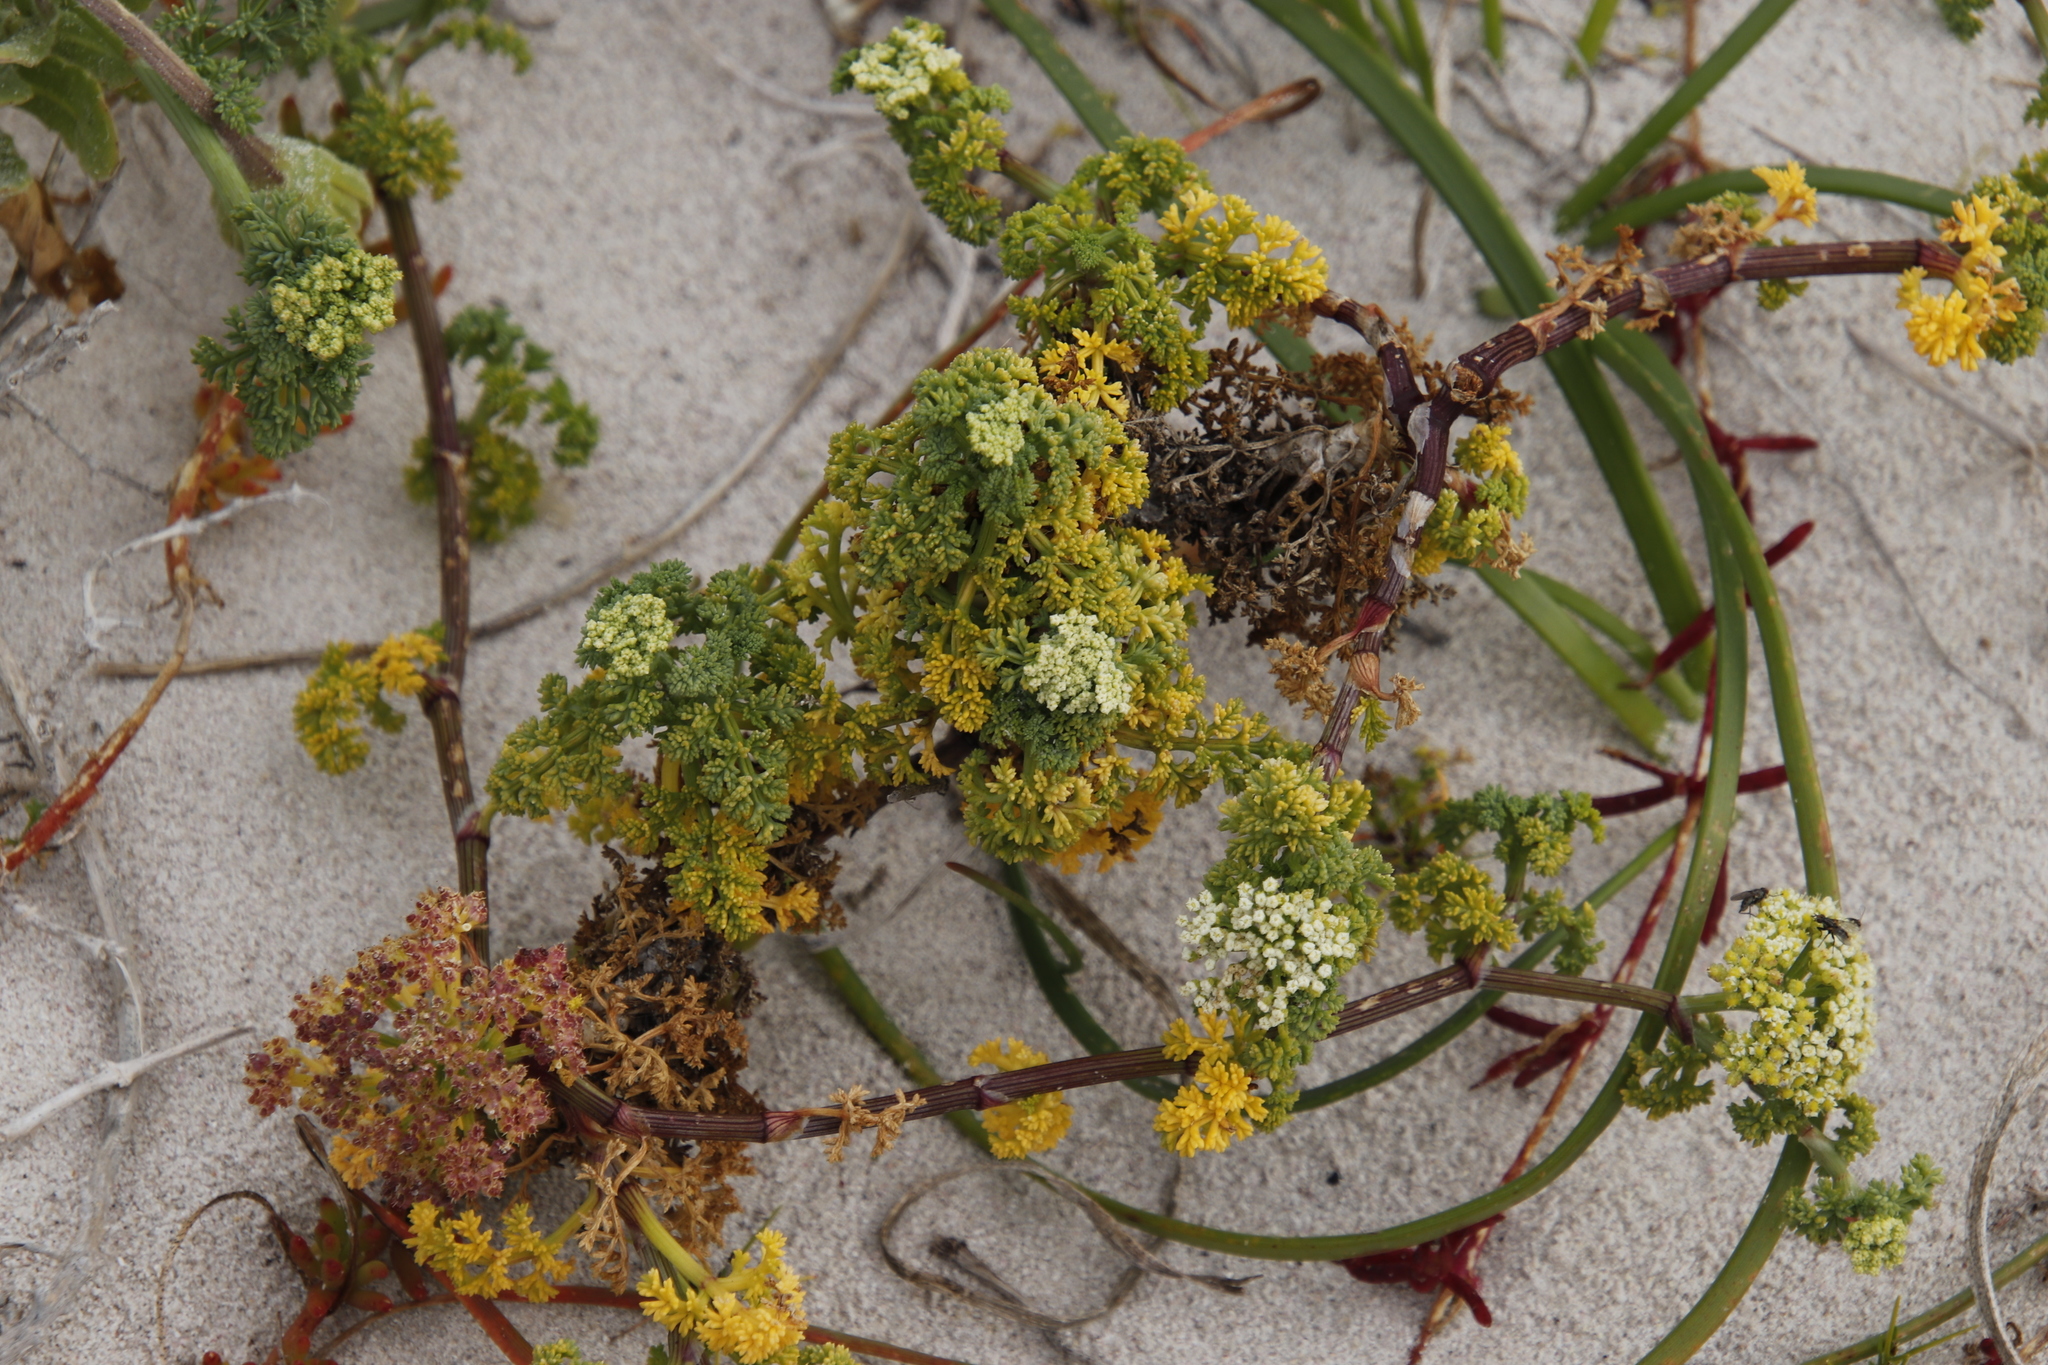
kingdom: Plantae
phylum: Tracheophyta
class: Magnoliopsida
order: Apiales
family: Apiaceae
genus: Dasispermum
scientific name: Dasispermum suffruticosum
